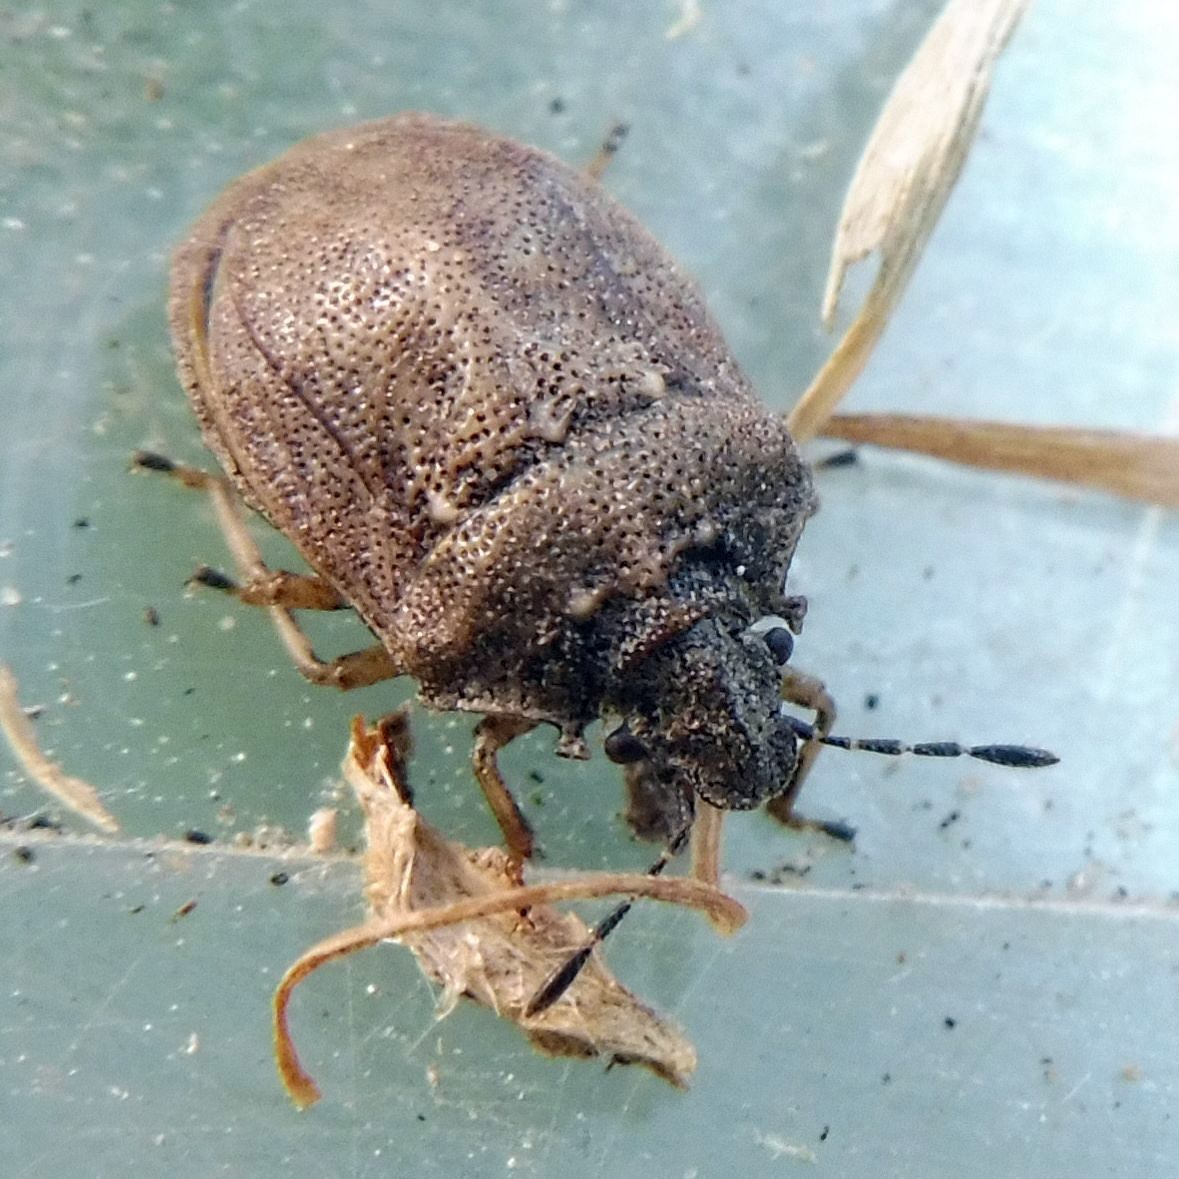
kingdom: Animalia
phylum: Arthropoda
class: Insecta
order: Hemiptera
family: Pentatomidae
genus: Podops
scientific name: Podops inunctus
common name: Turtle bug
